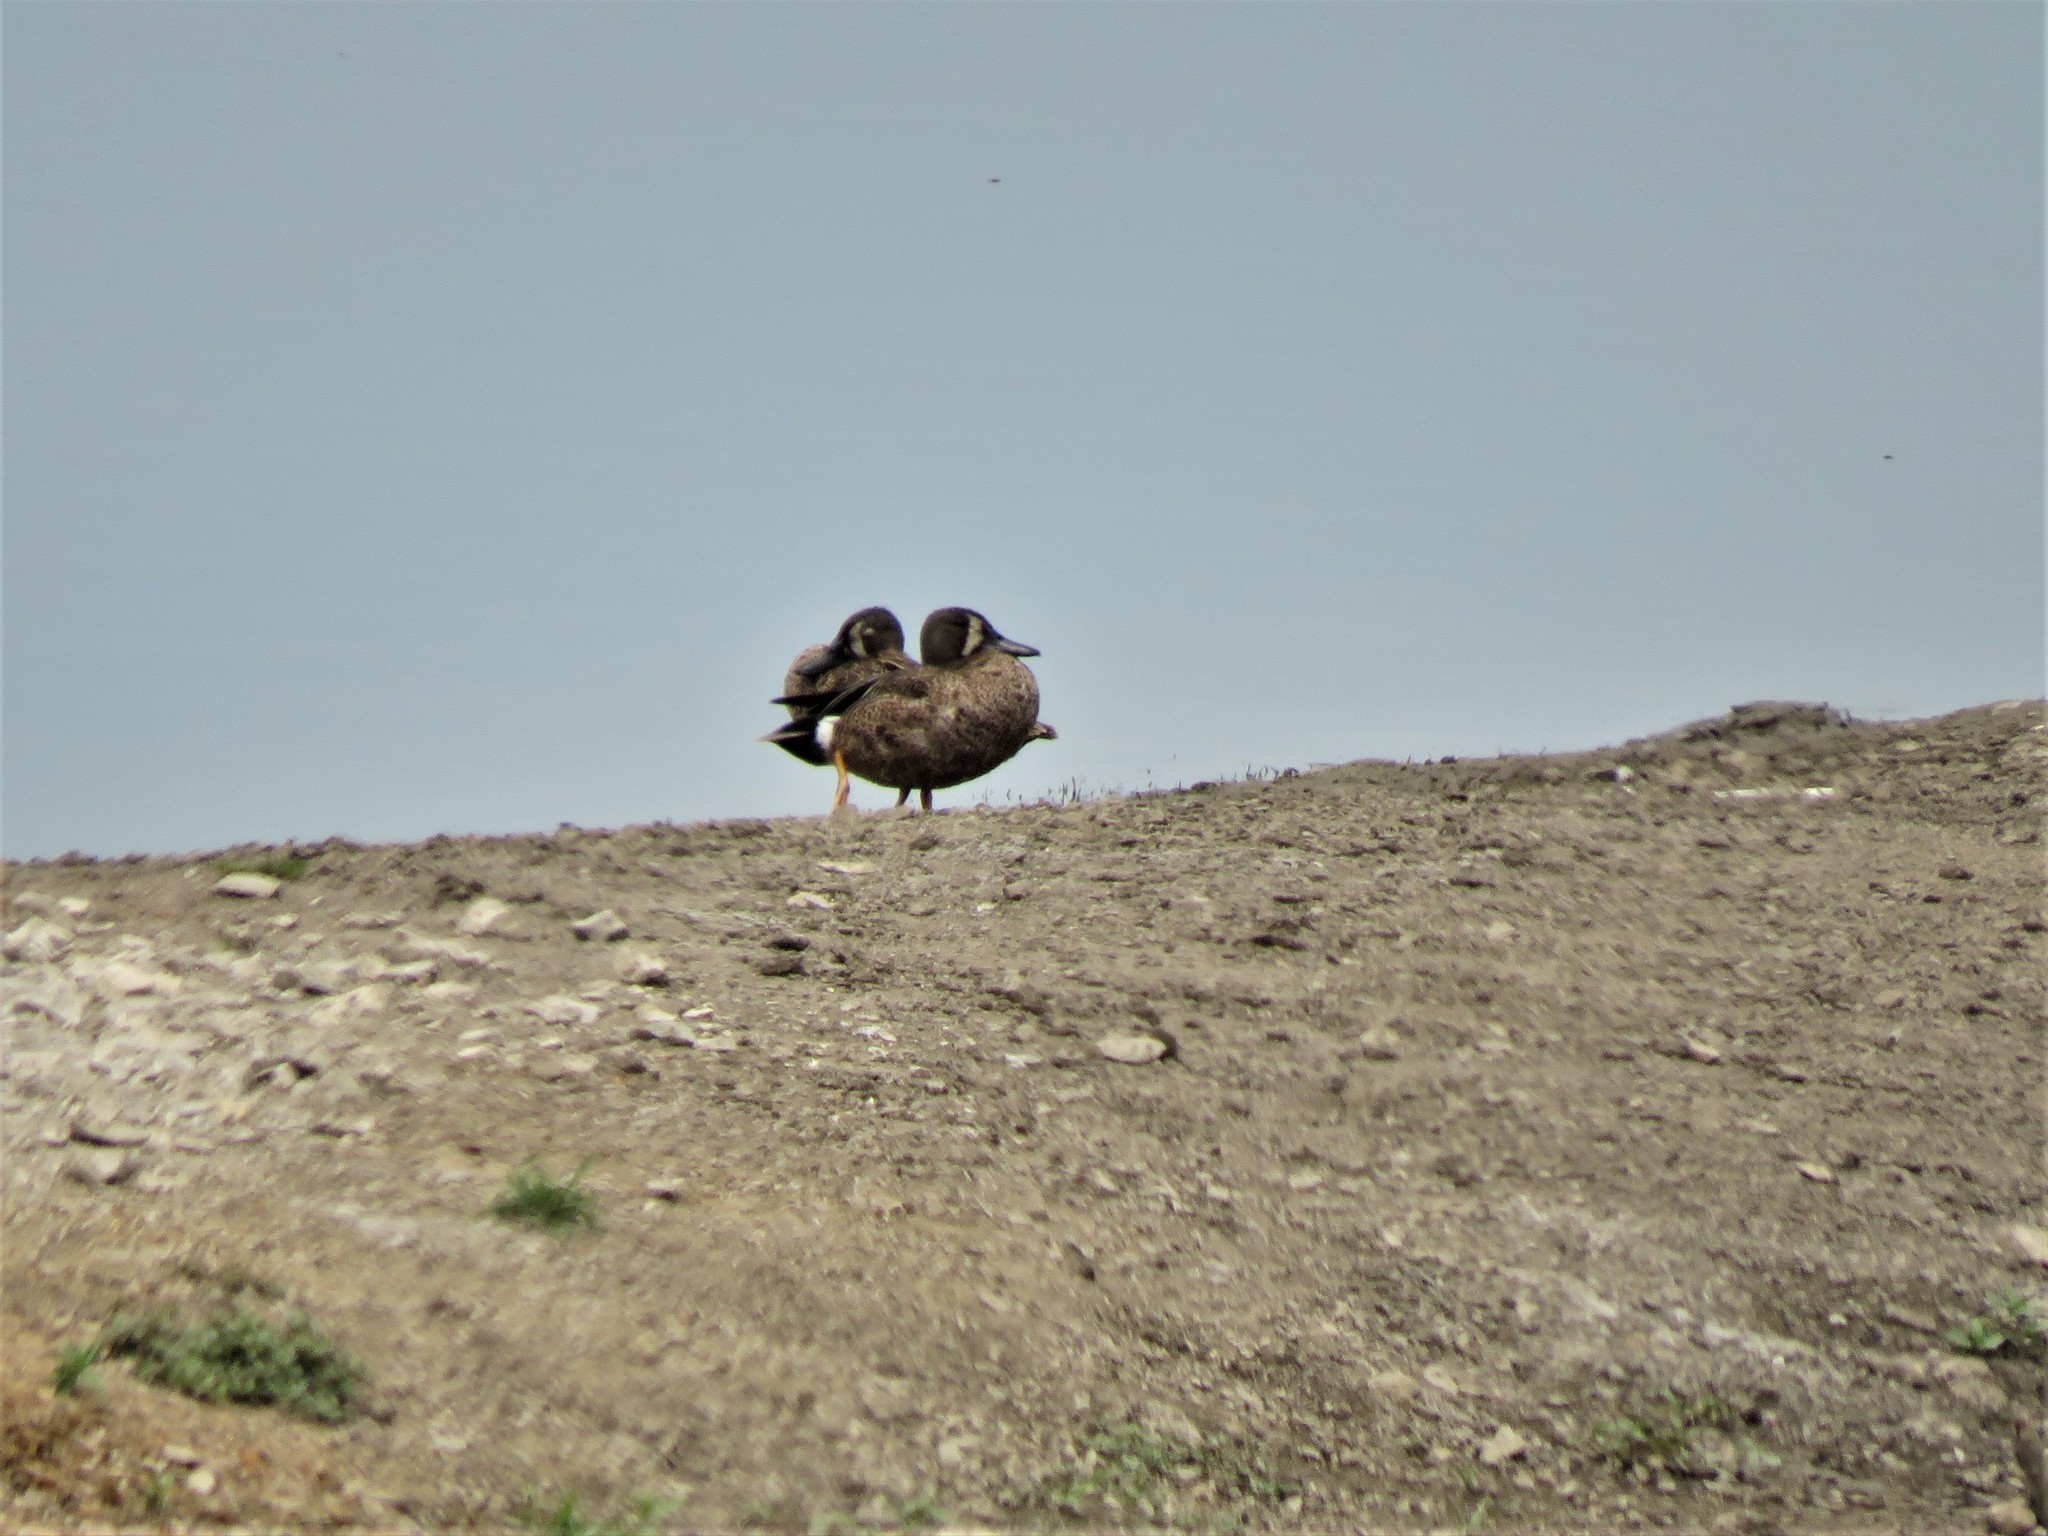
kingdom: Animalia
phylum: Chordata
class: Aves
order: Anseriformes
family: Anatidae
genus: Spatula
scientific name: Spatula discors
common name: Blue-winged teal
